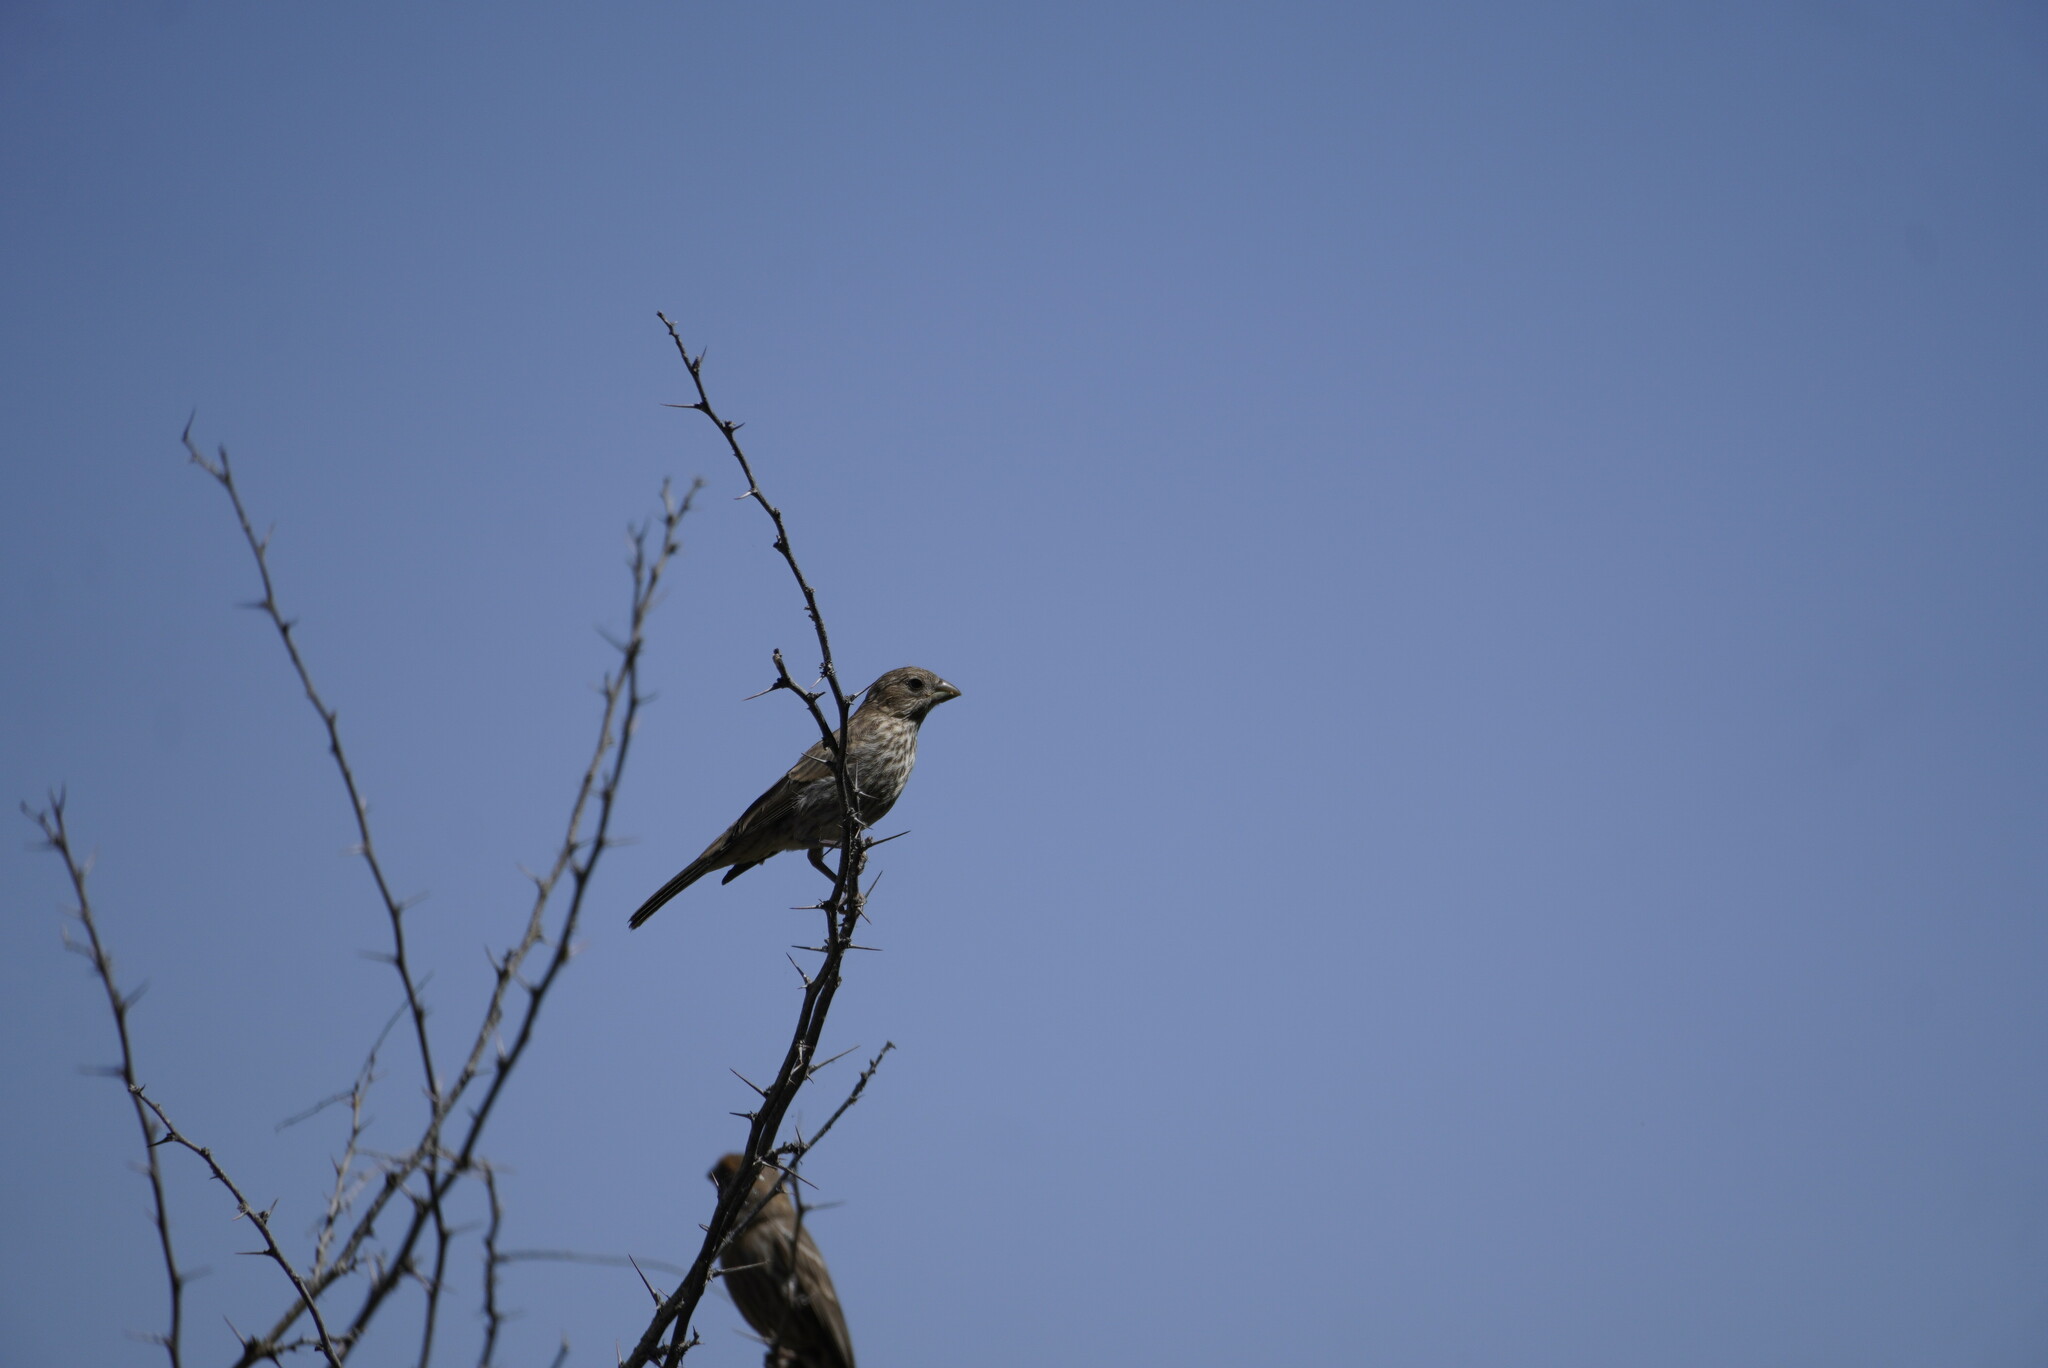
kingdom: Animalia
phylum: Chordata
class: Aves
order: Passeriformes
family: Fringillidae
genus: Haemorhous
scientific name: Haemorhous mexicanus
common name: House finch
